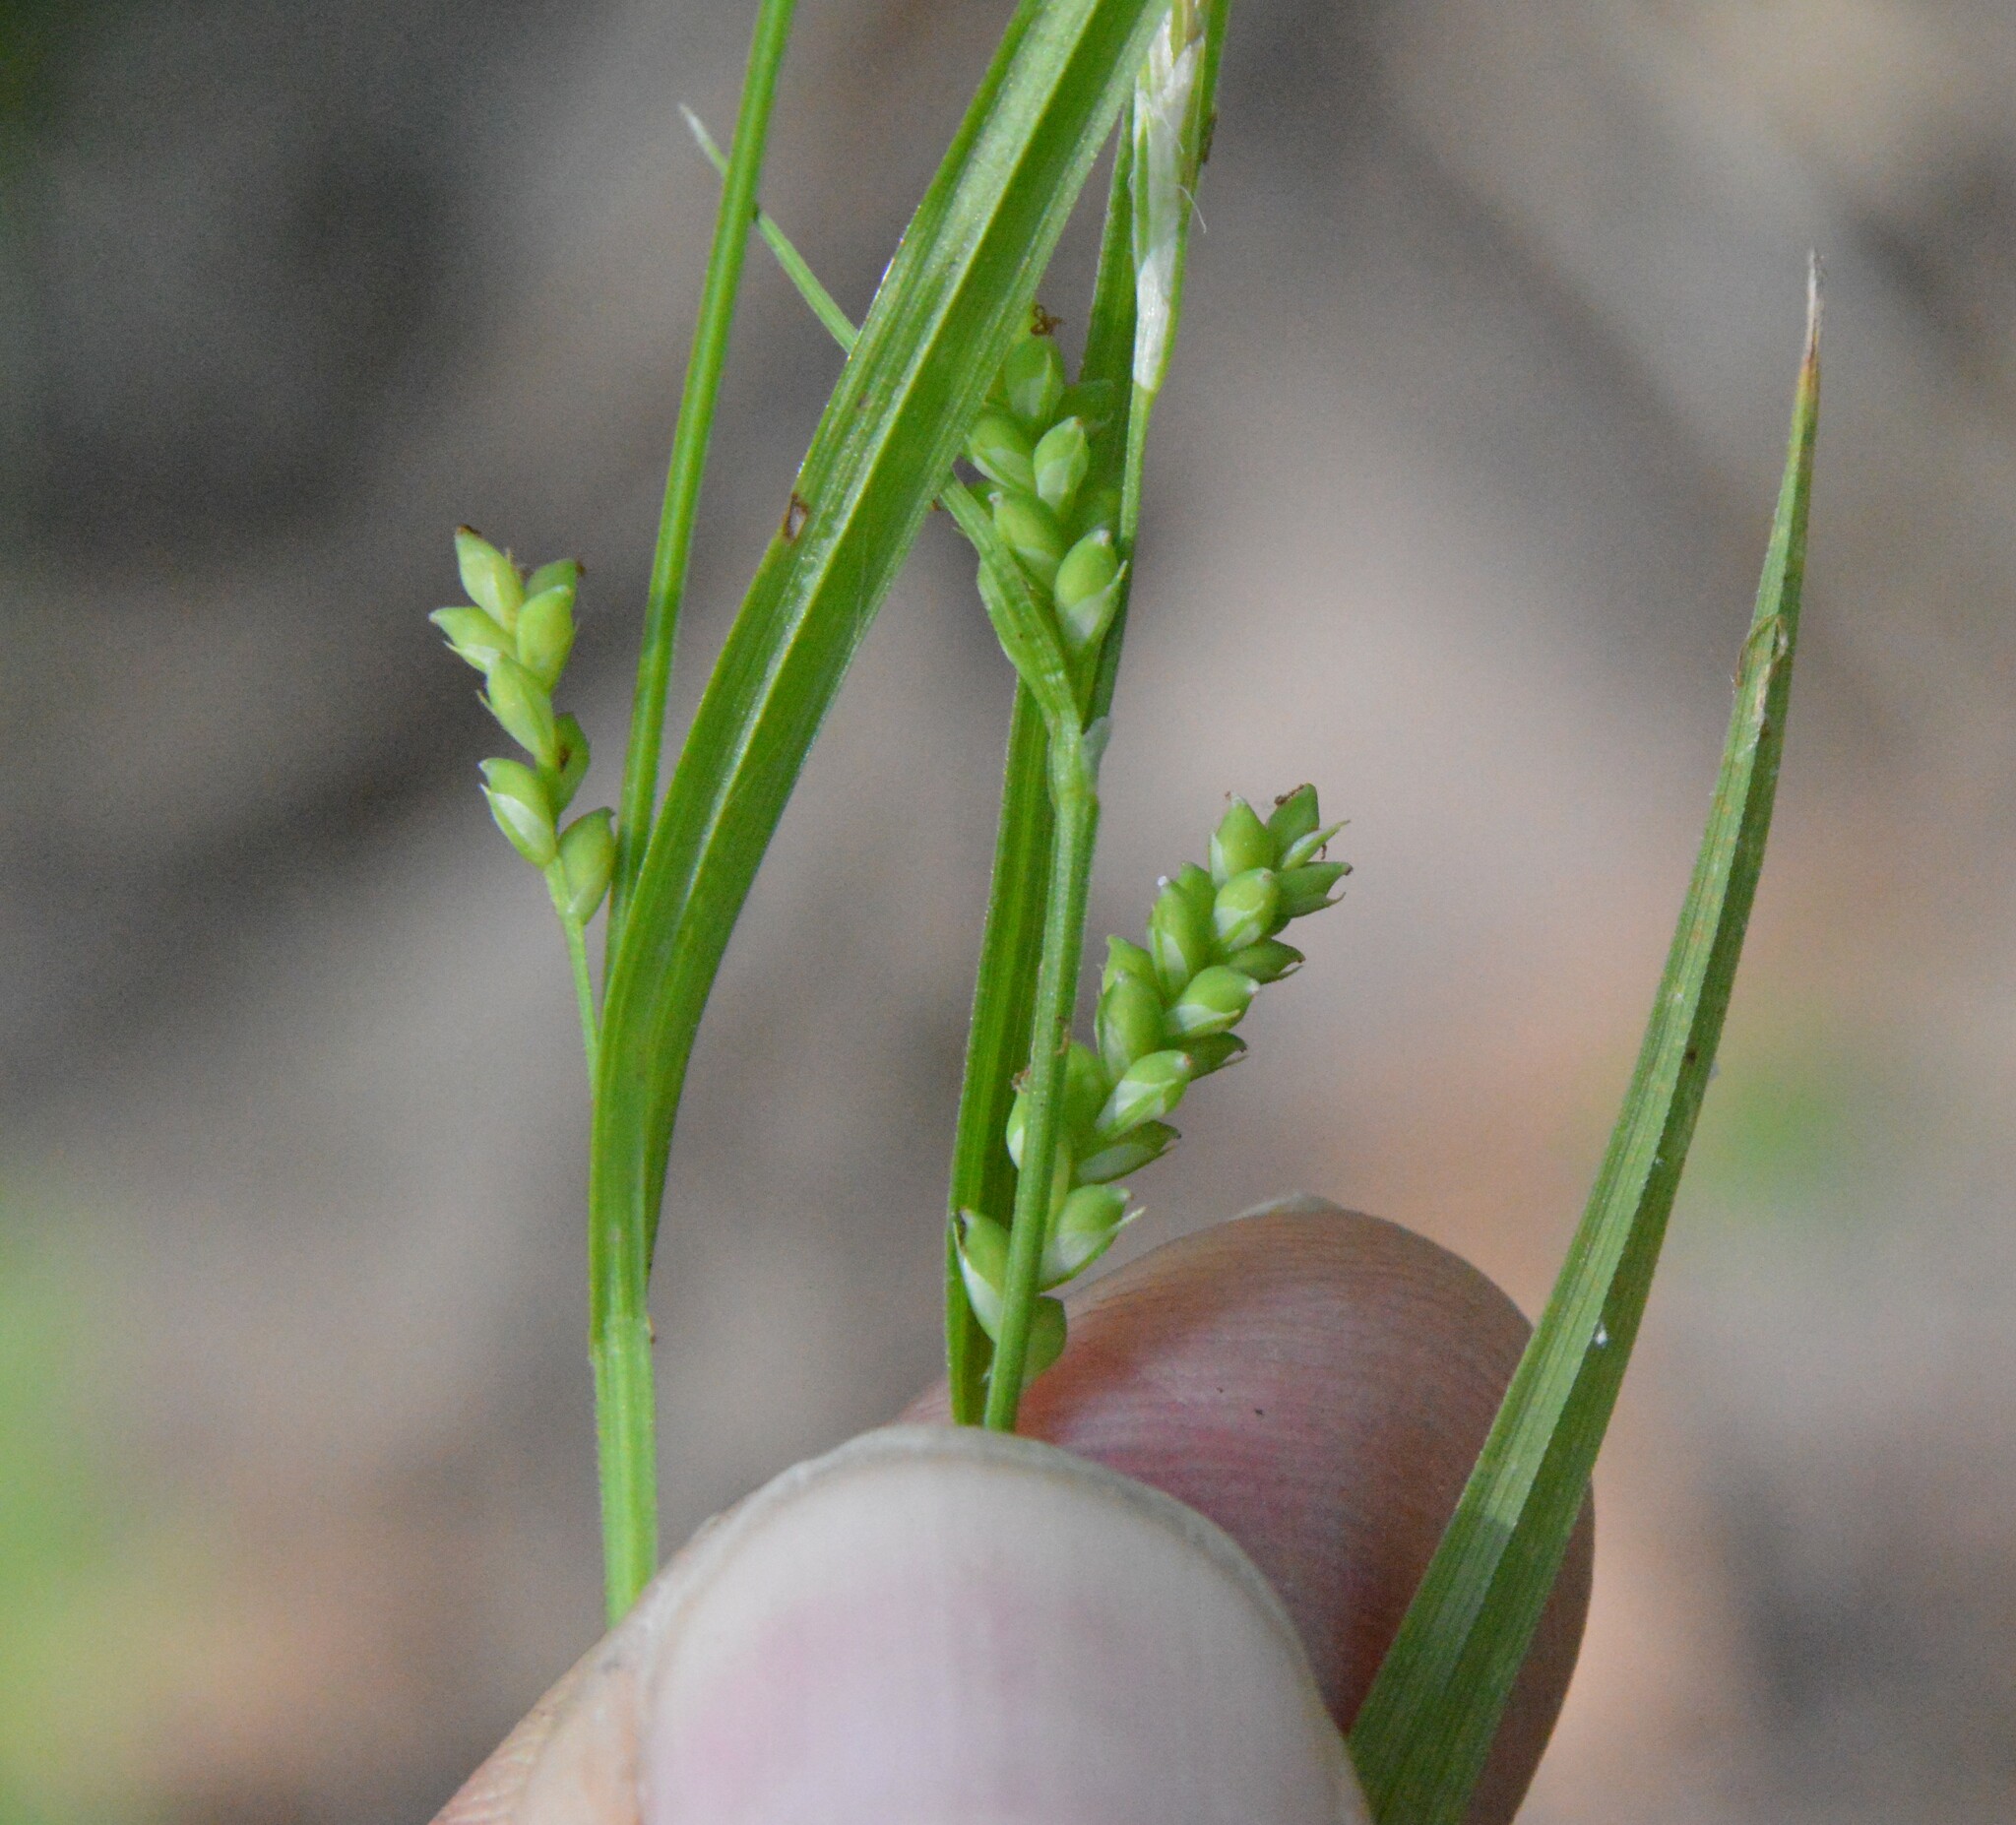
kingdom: Plantae
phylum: Tracheophyta
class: Liliopsida
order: Poales
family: Cyperaceae
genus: Carex
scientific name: Carex blanda
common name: Bland sedge
